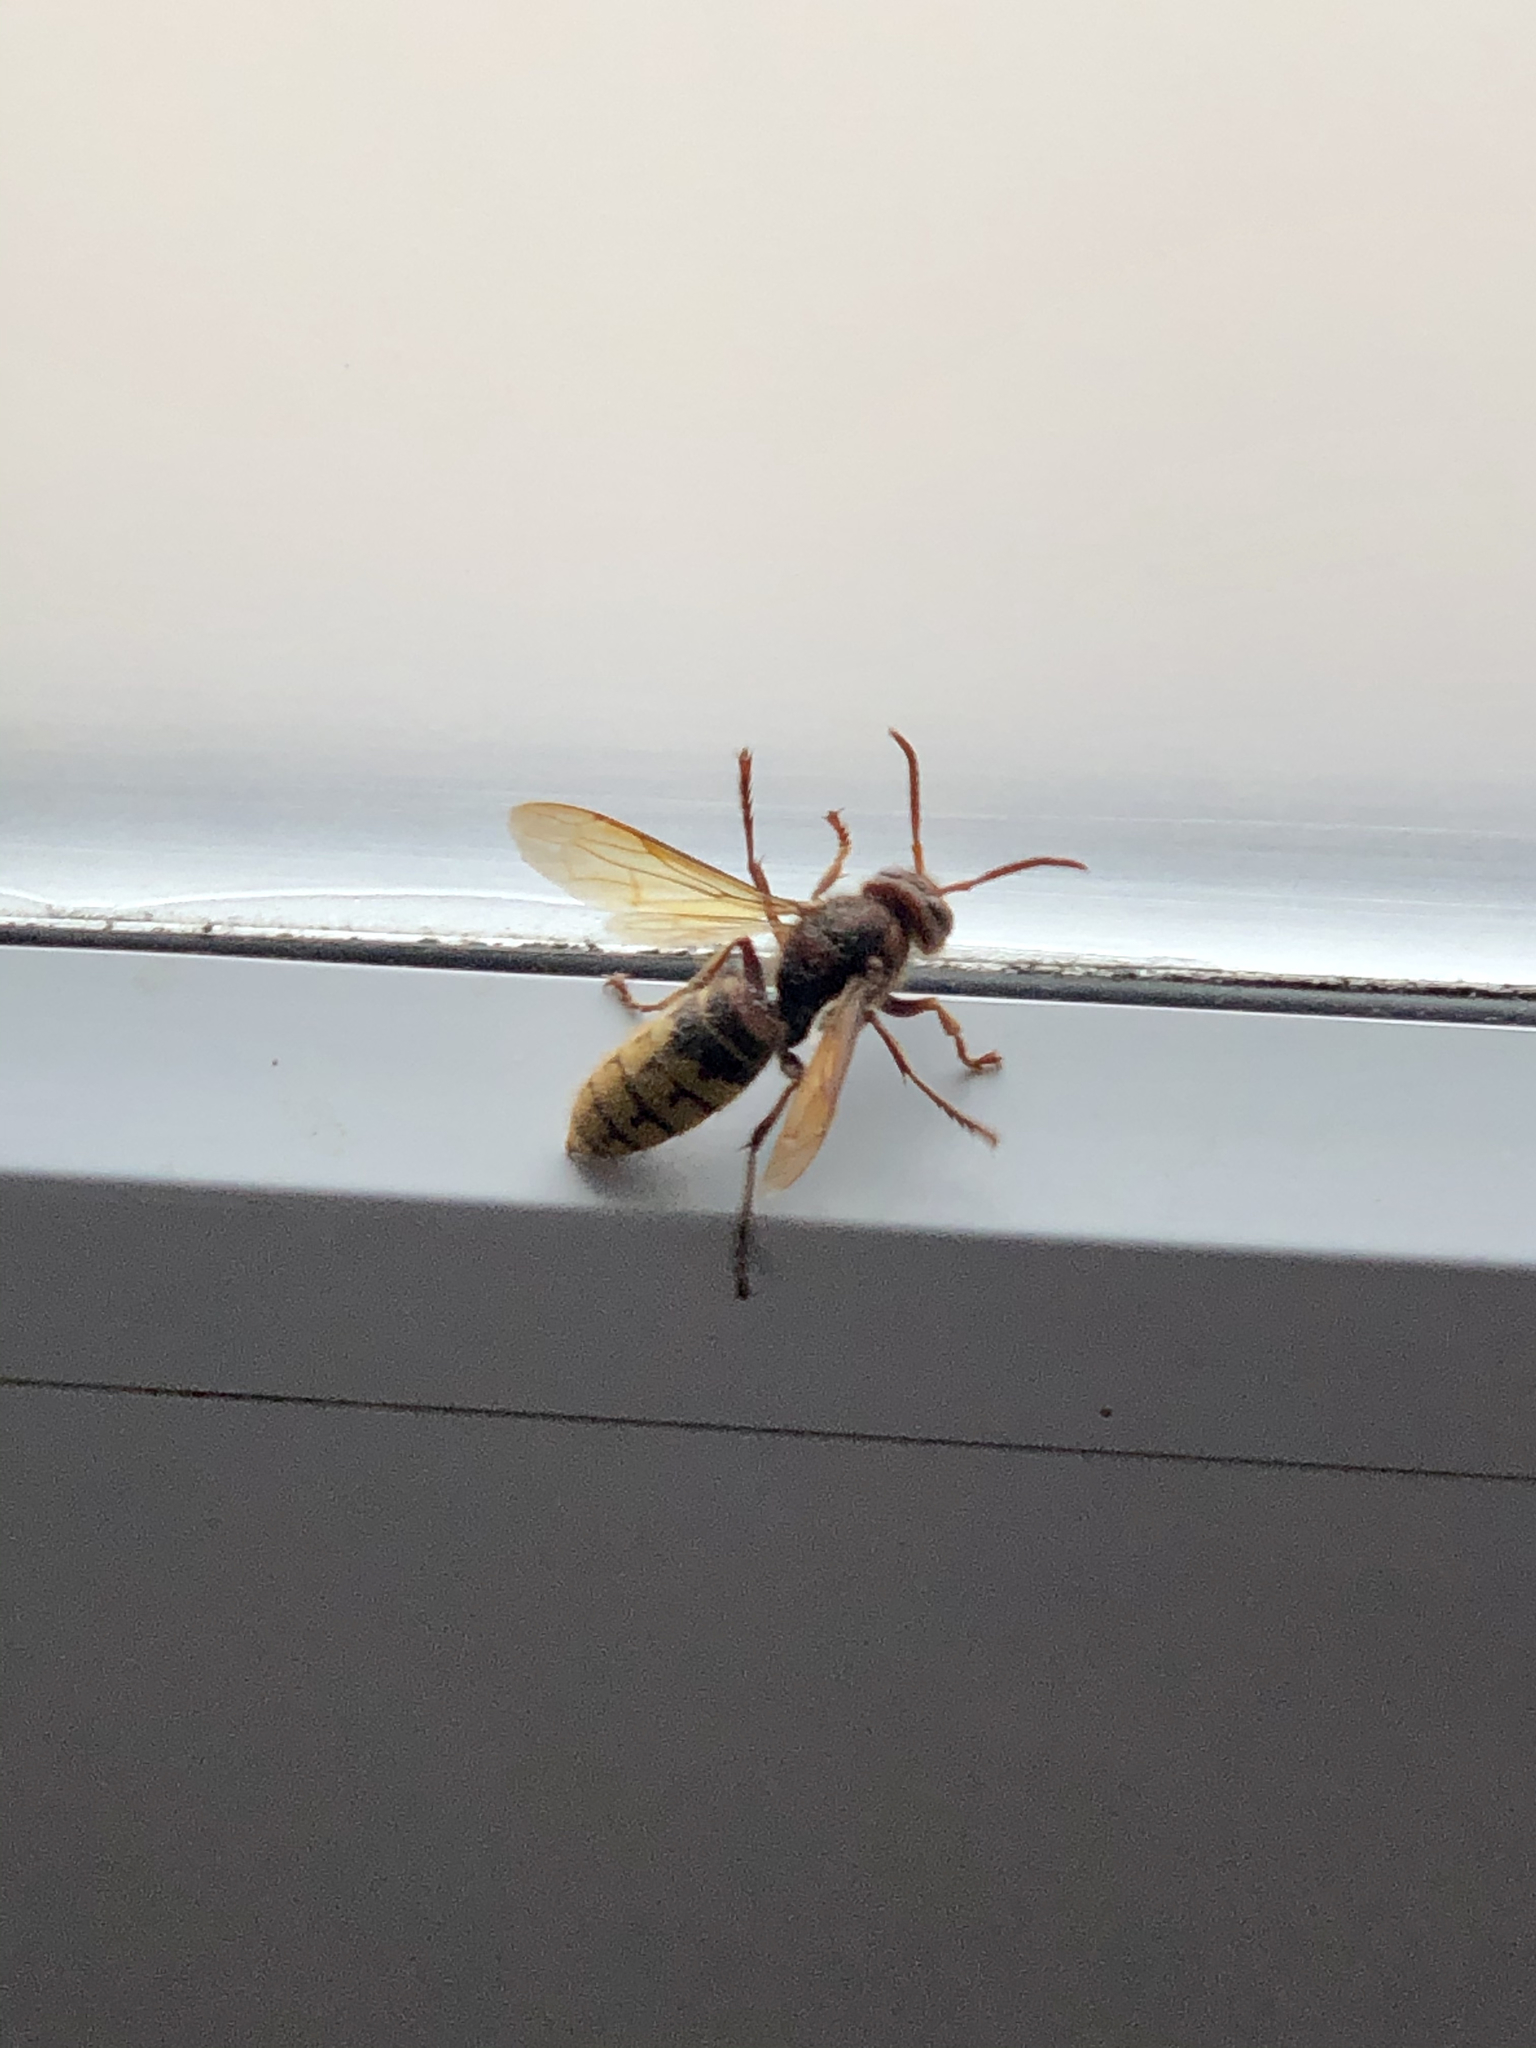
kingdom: Animalia
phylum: Arthropoda
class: Insecta
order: Hymenoptera
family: Vespidae
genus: Vespa
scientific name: Vespa crabro
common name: Hornet
